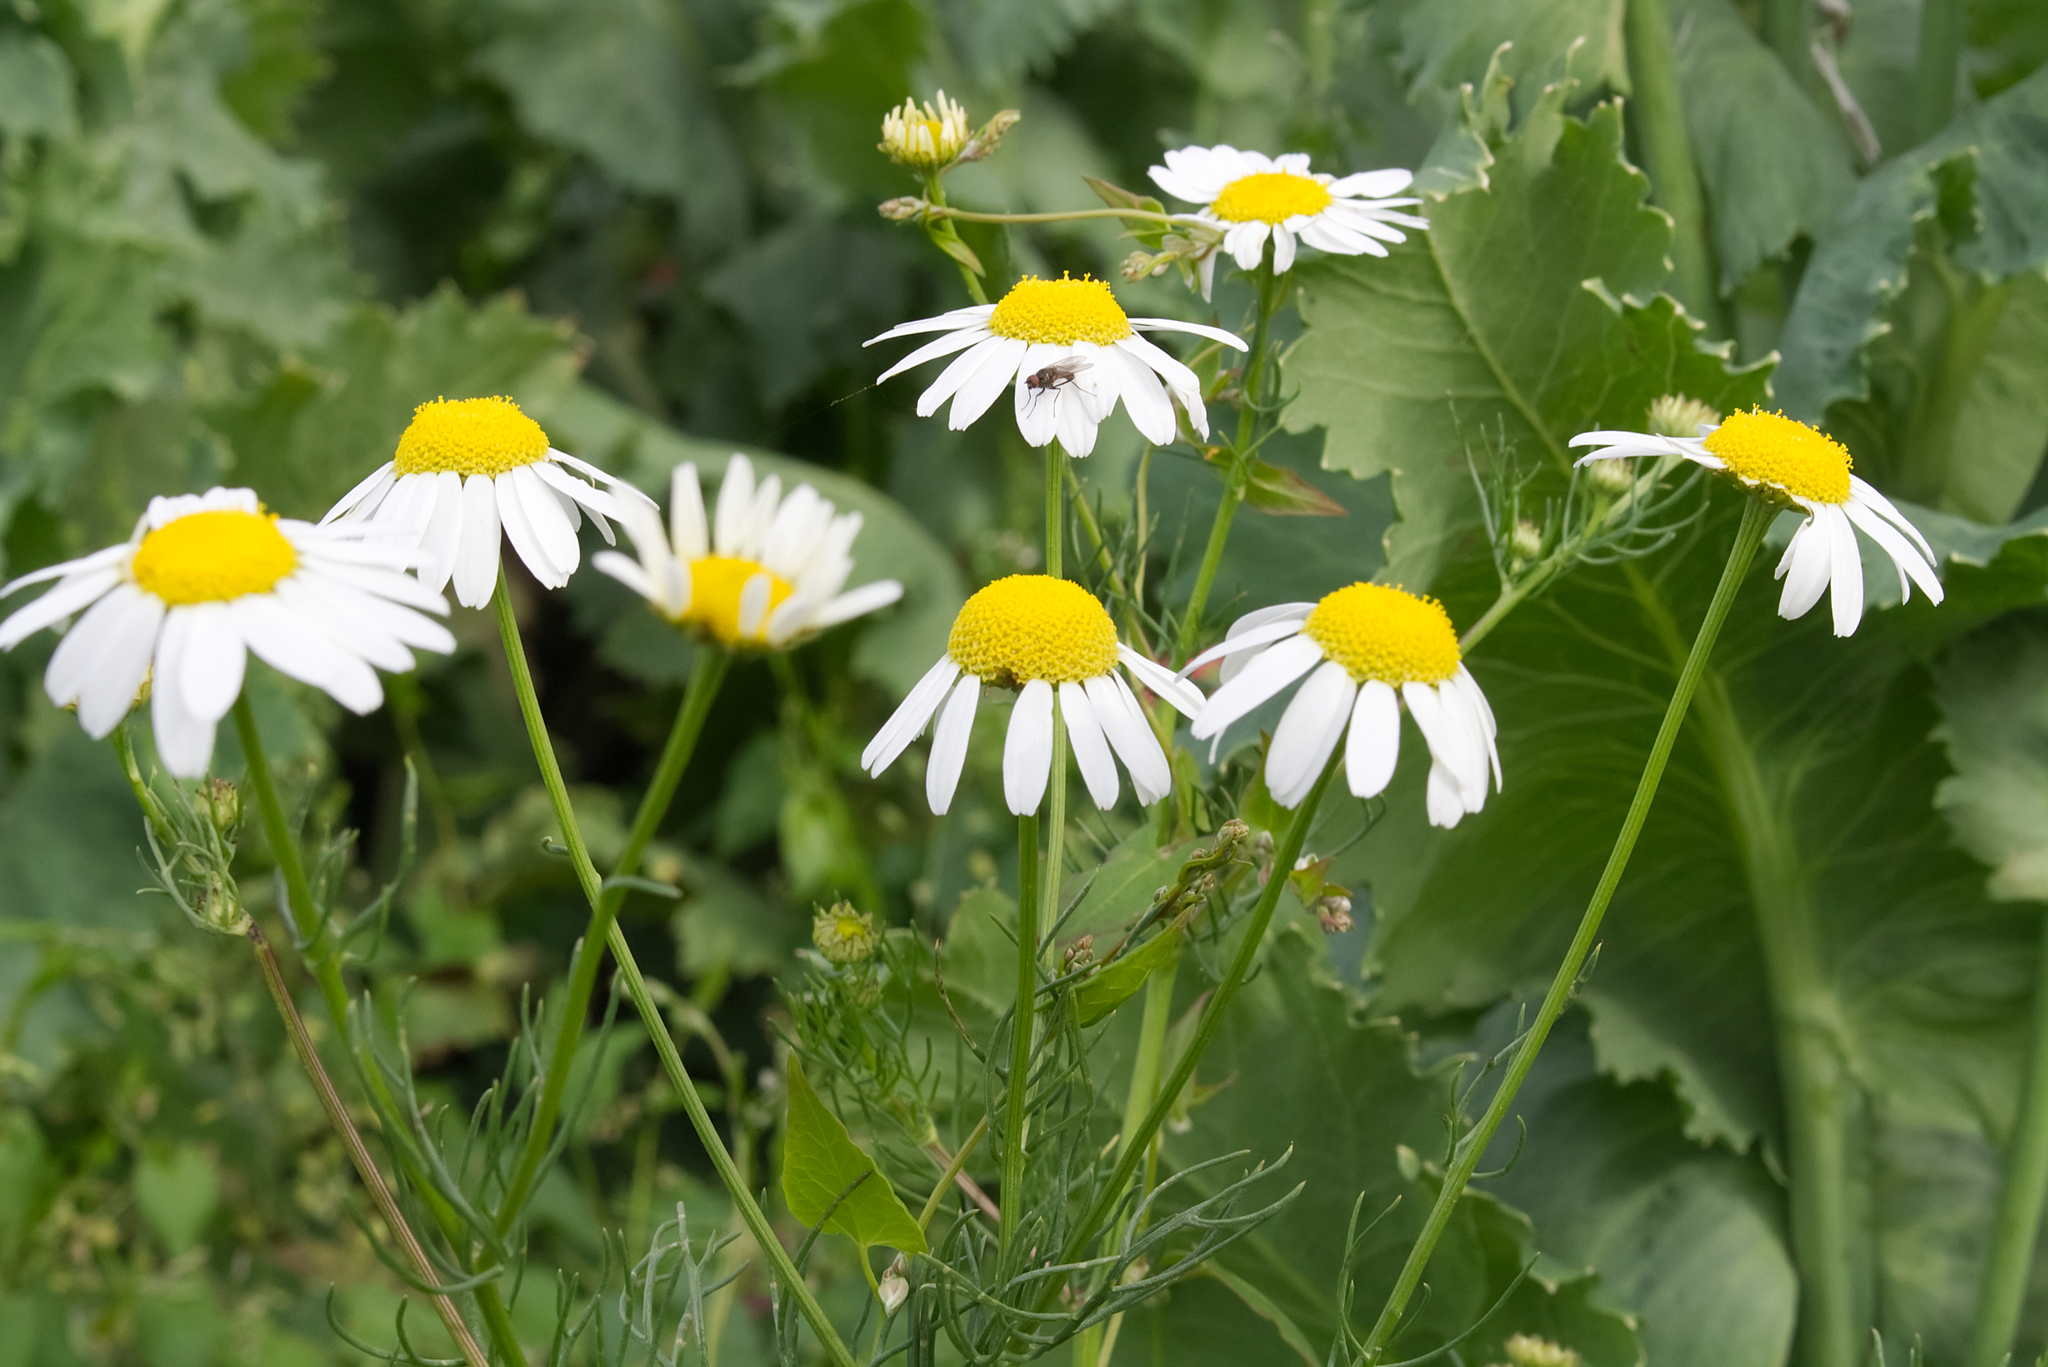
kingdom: Plantae
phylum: Tracheophyta
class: Magnoliopsida
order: Asterales
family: Asteraceae
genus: Tripleurospermum
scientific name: Tripleurospermum inodorum
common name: Scentless mayweed
